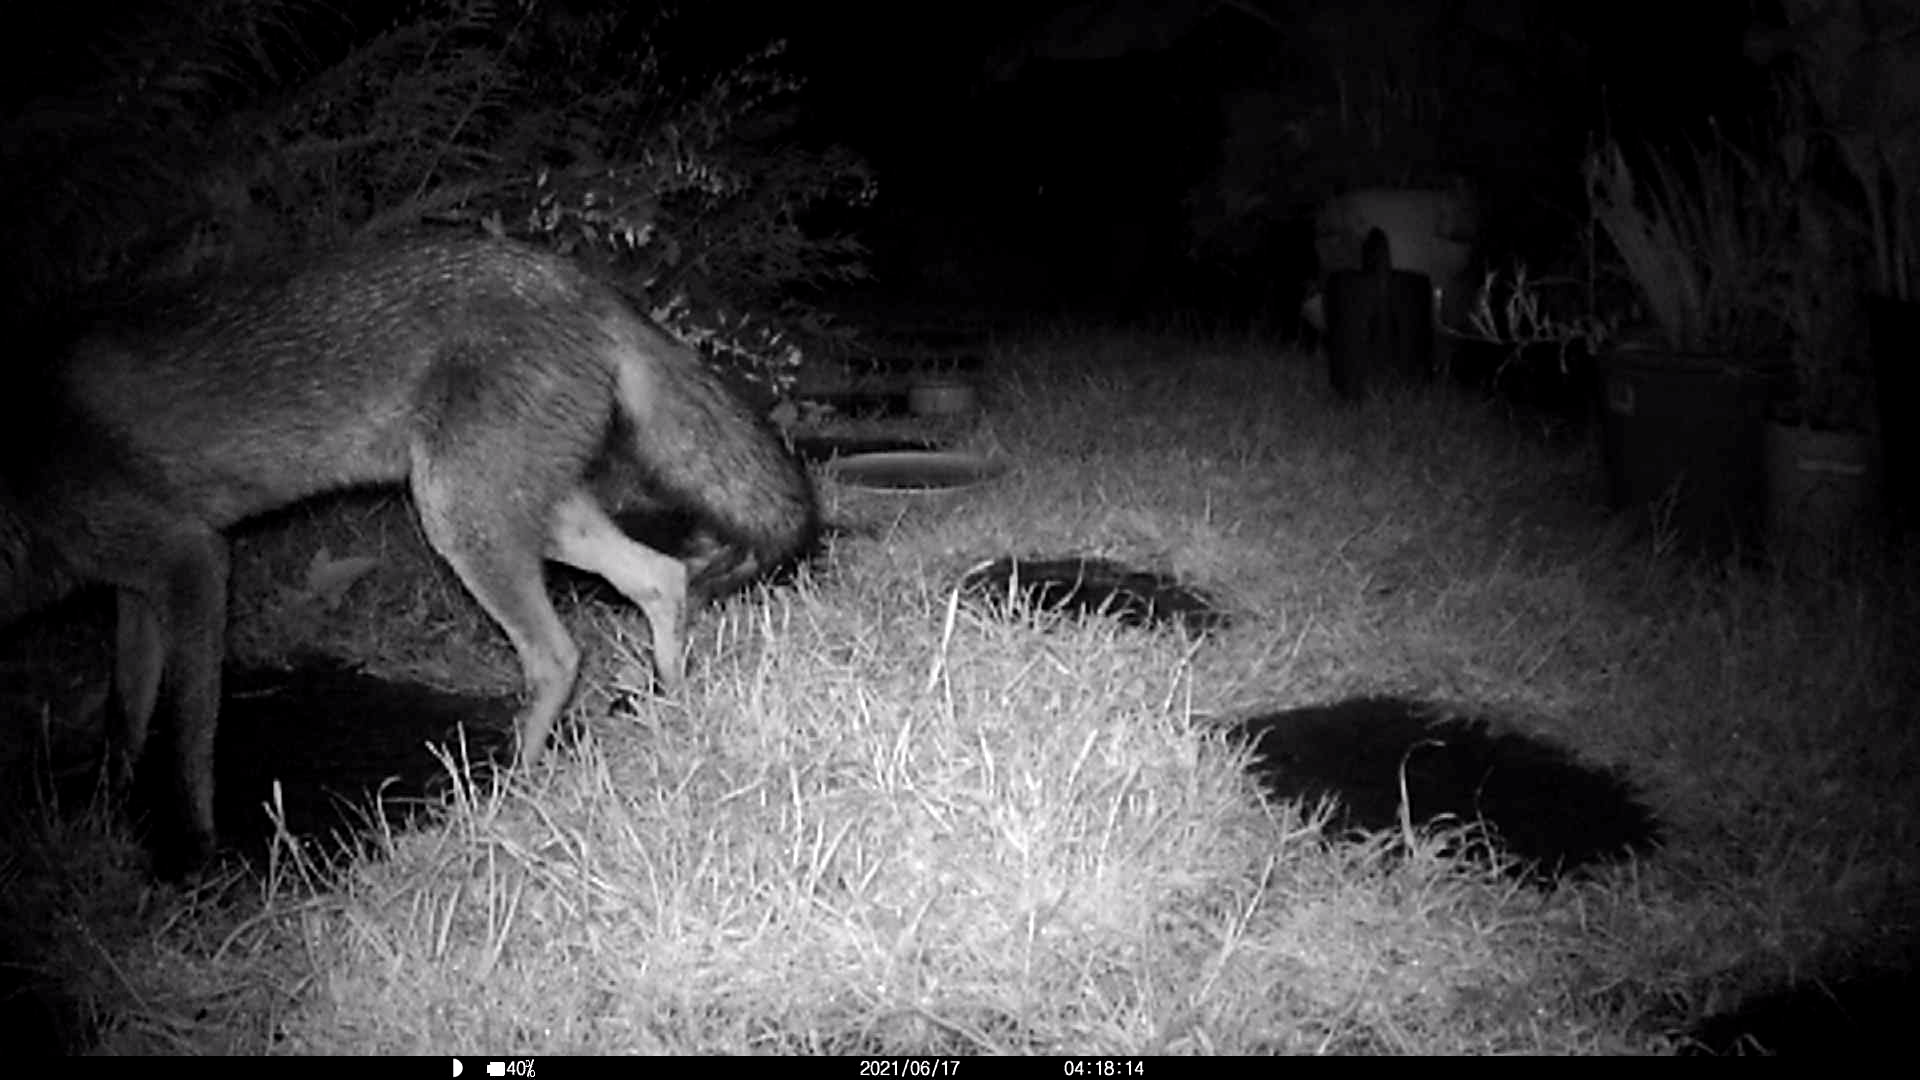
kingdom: Animalia
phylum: Chordata
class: Mammalia
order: Carnivora
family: Canidae
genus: Vulpes
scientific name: Vulpes vulpes
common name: Red fox
